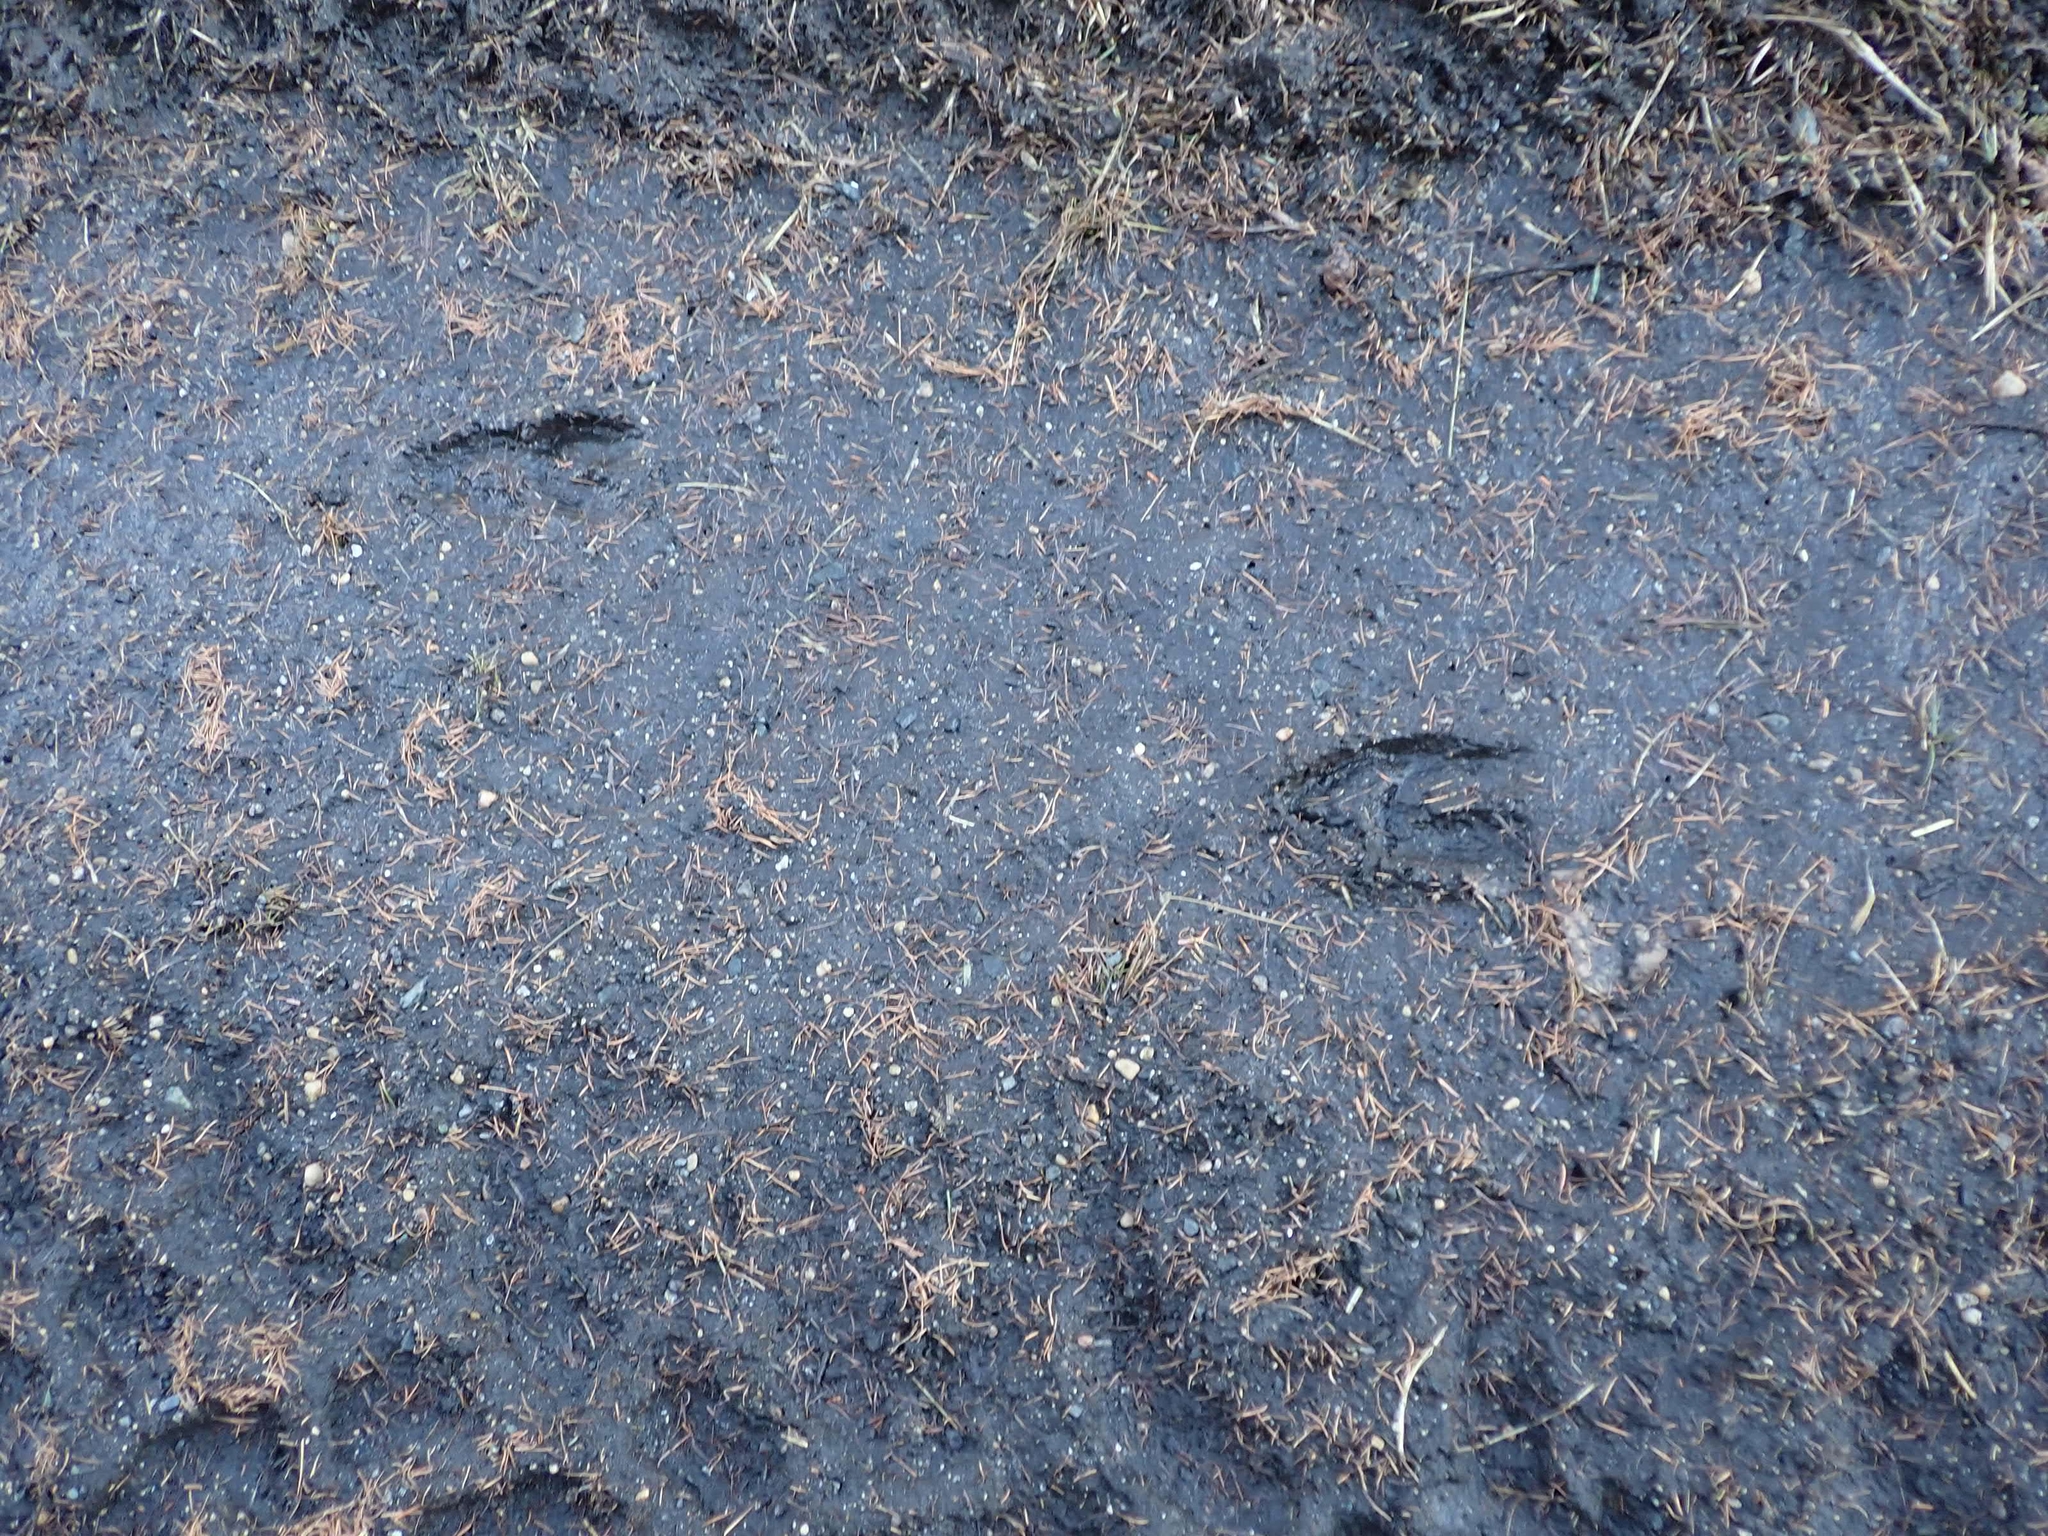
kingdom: Animalia
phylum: Chordata
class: Mammalia
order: Artiodactyla
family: Cervidae
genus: Odocoileus
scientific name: Odocoileus virginianus
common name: White-tailed deer
